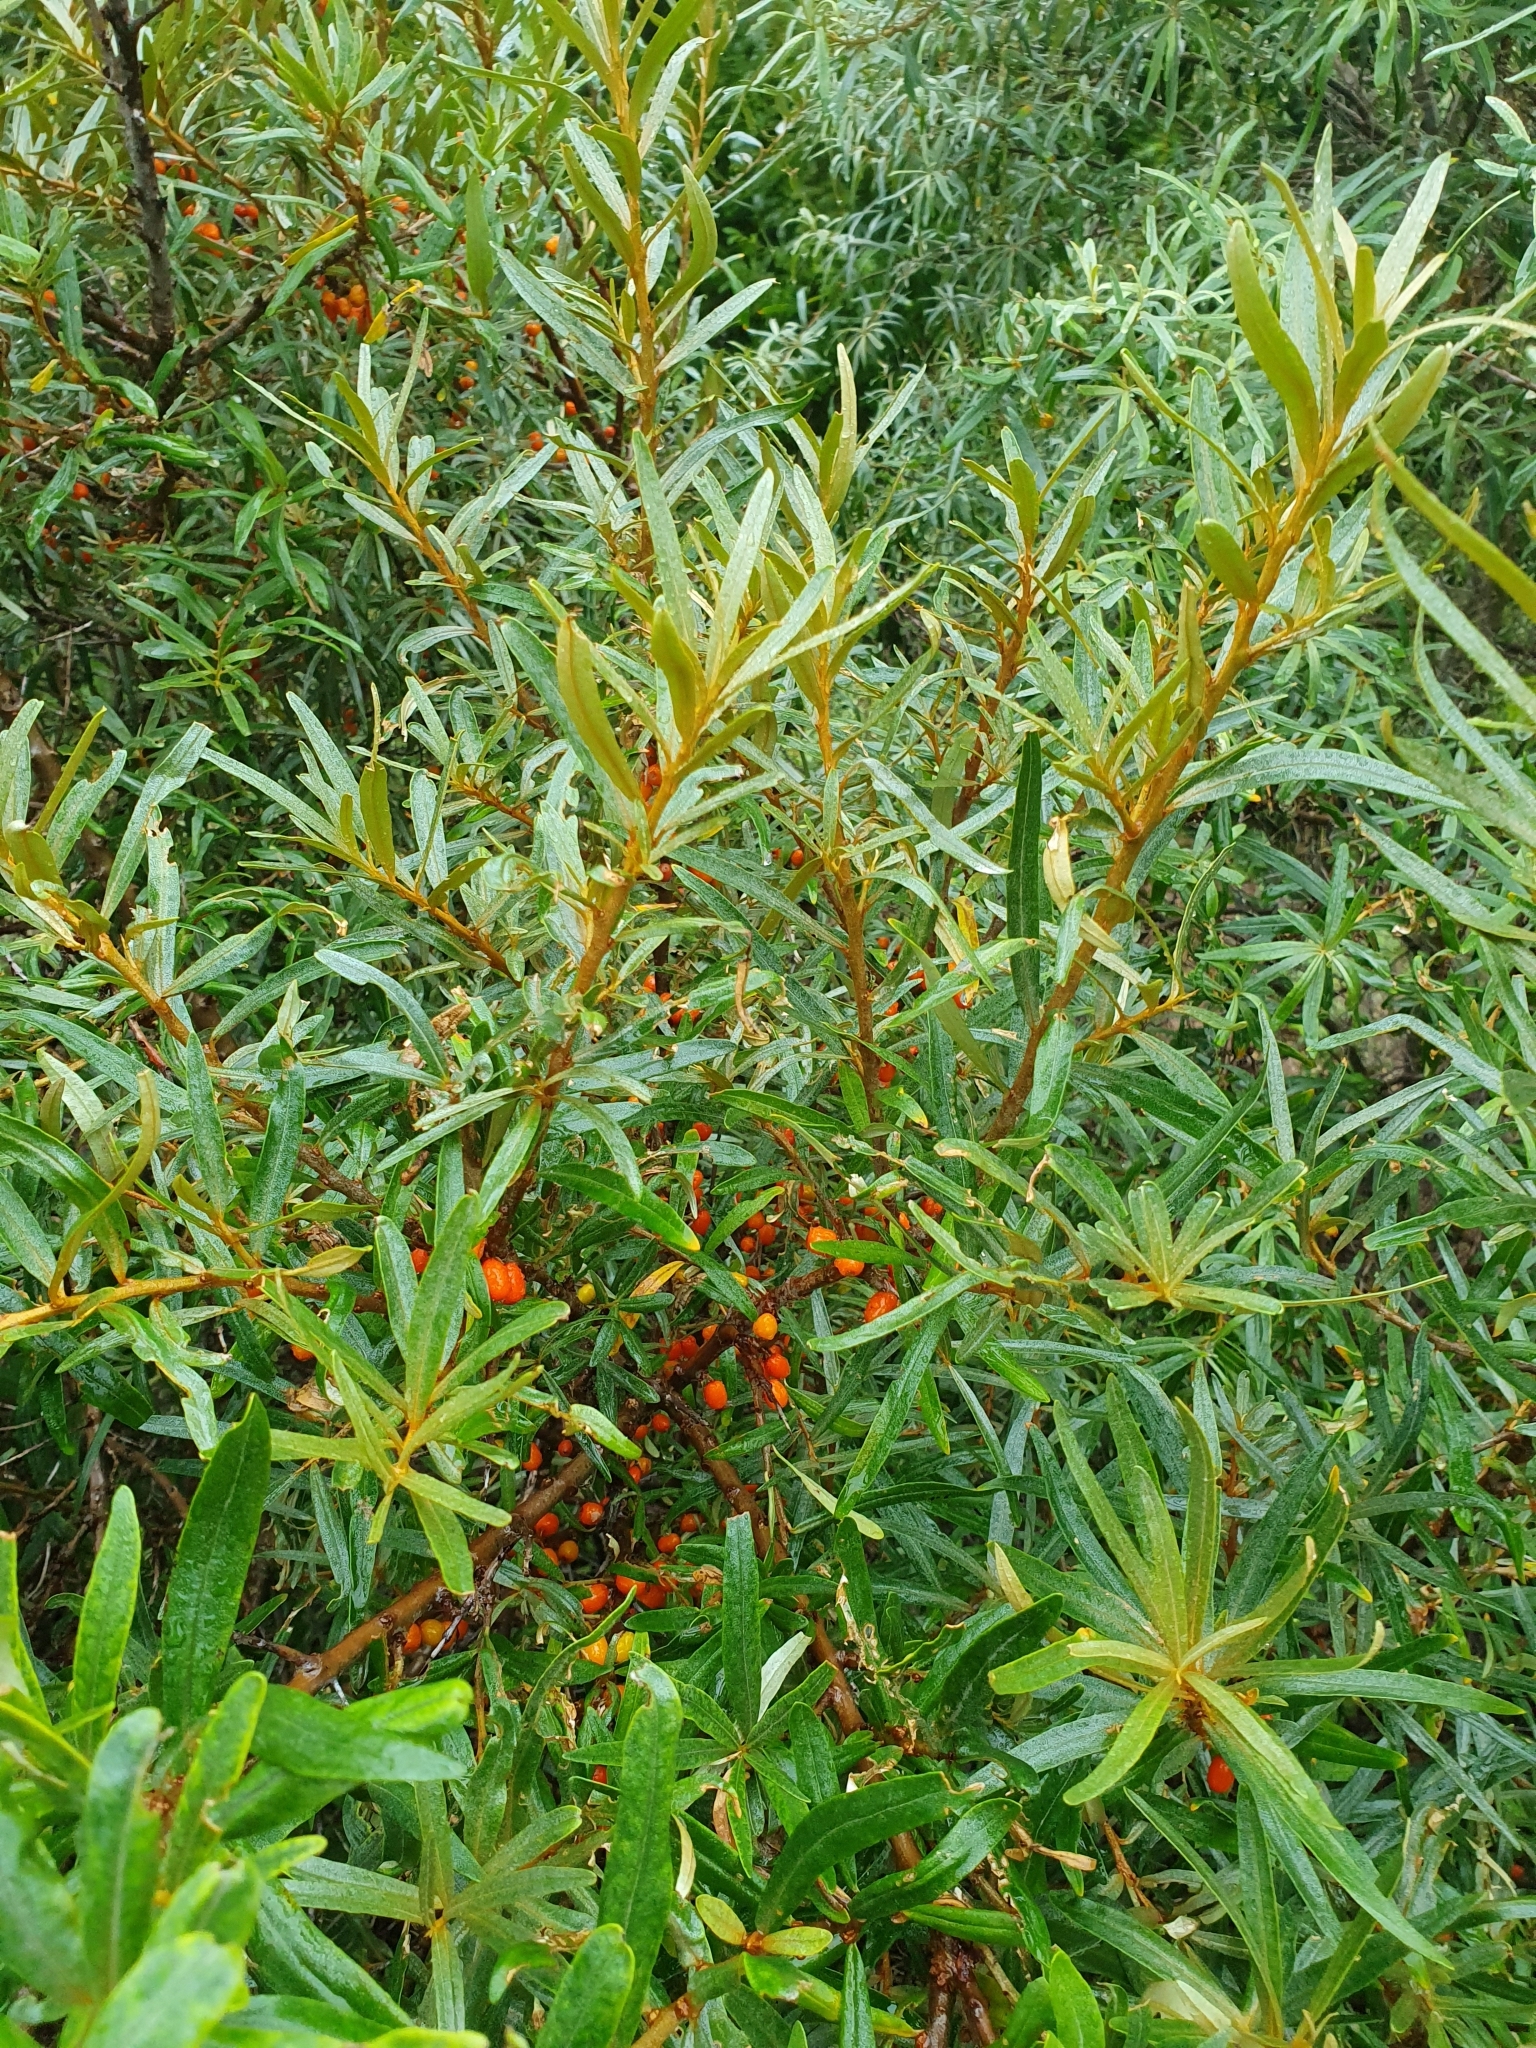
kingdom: Plantae
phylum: Tracheophyta
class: Magnoliopsida
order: Rosales
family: Elaeagnaceae
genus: Hippophae
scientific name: Hippophae rhamnoides
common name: Sea-buckthorn
